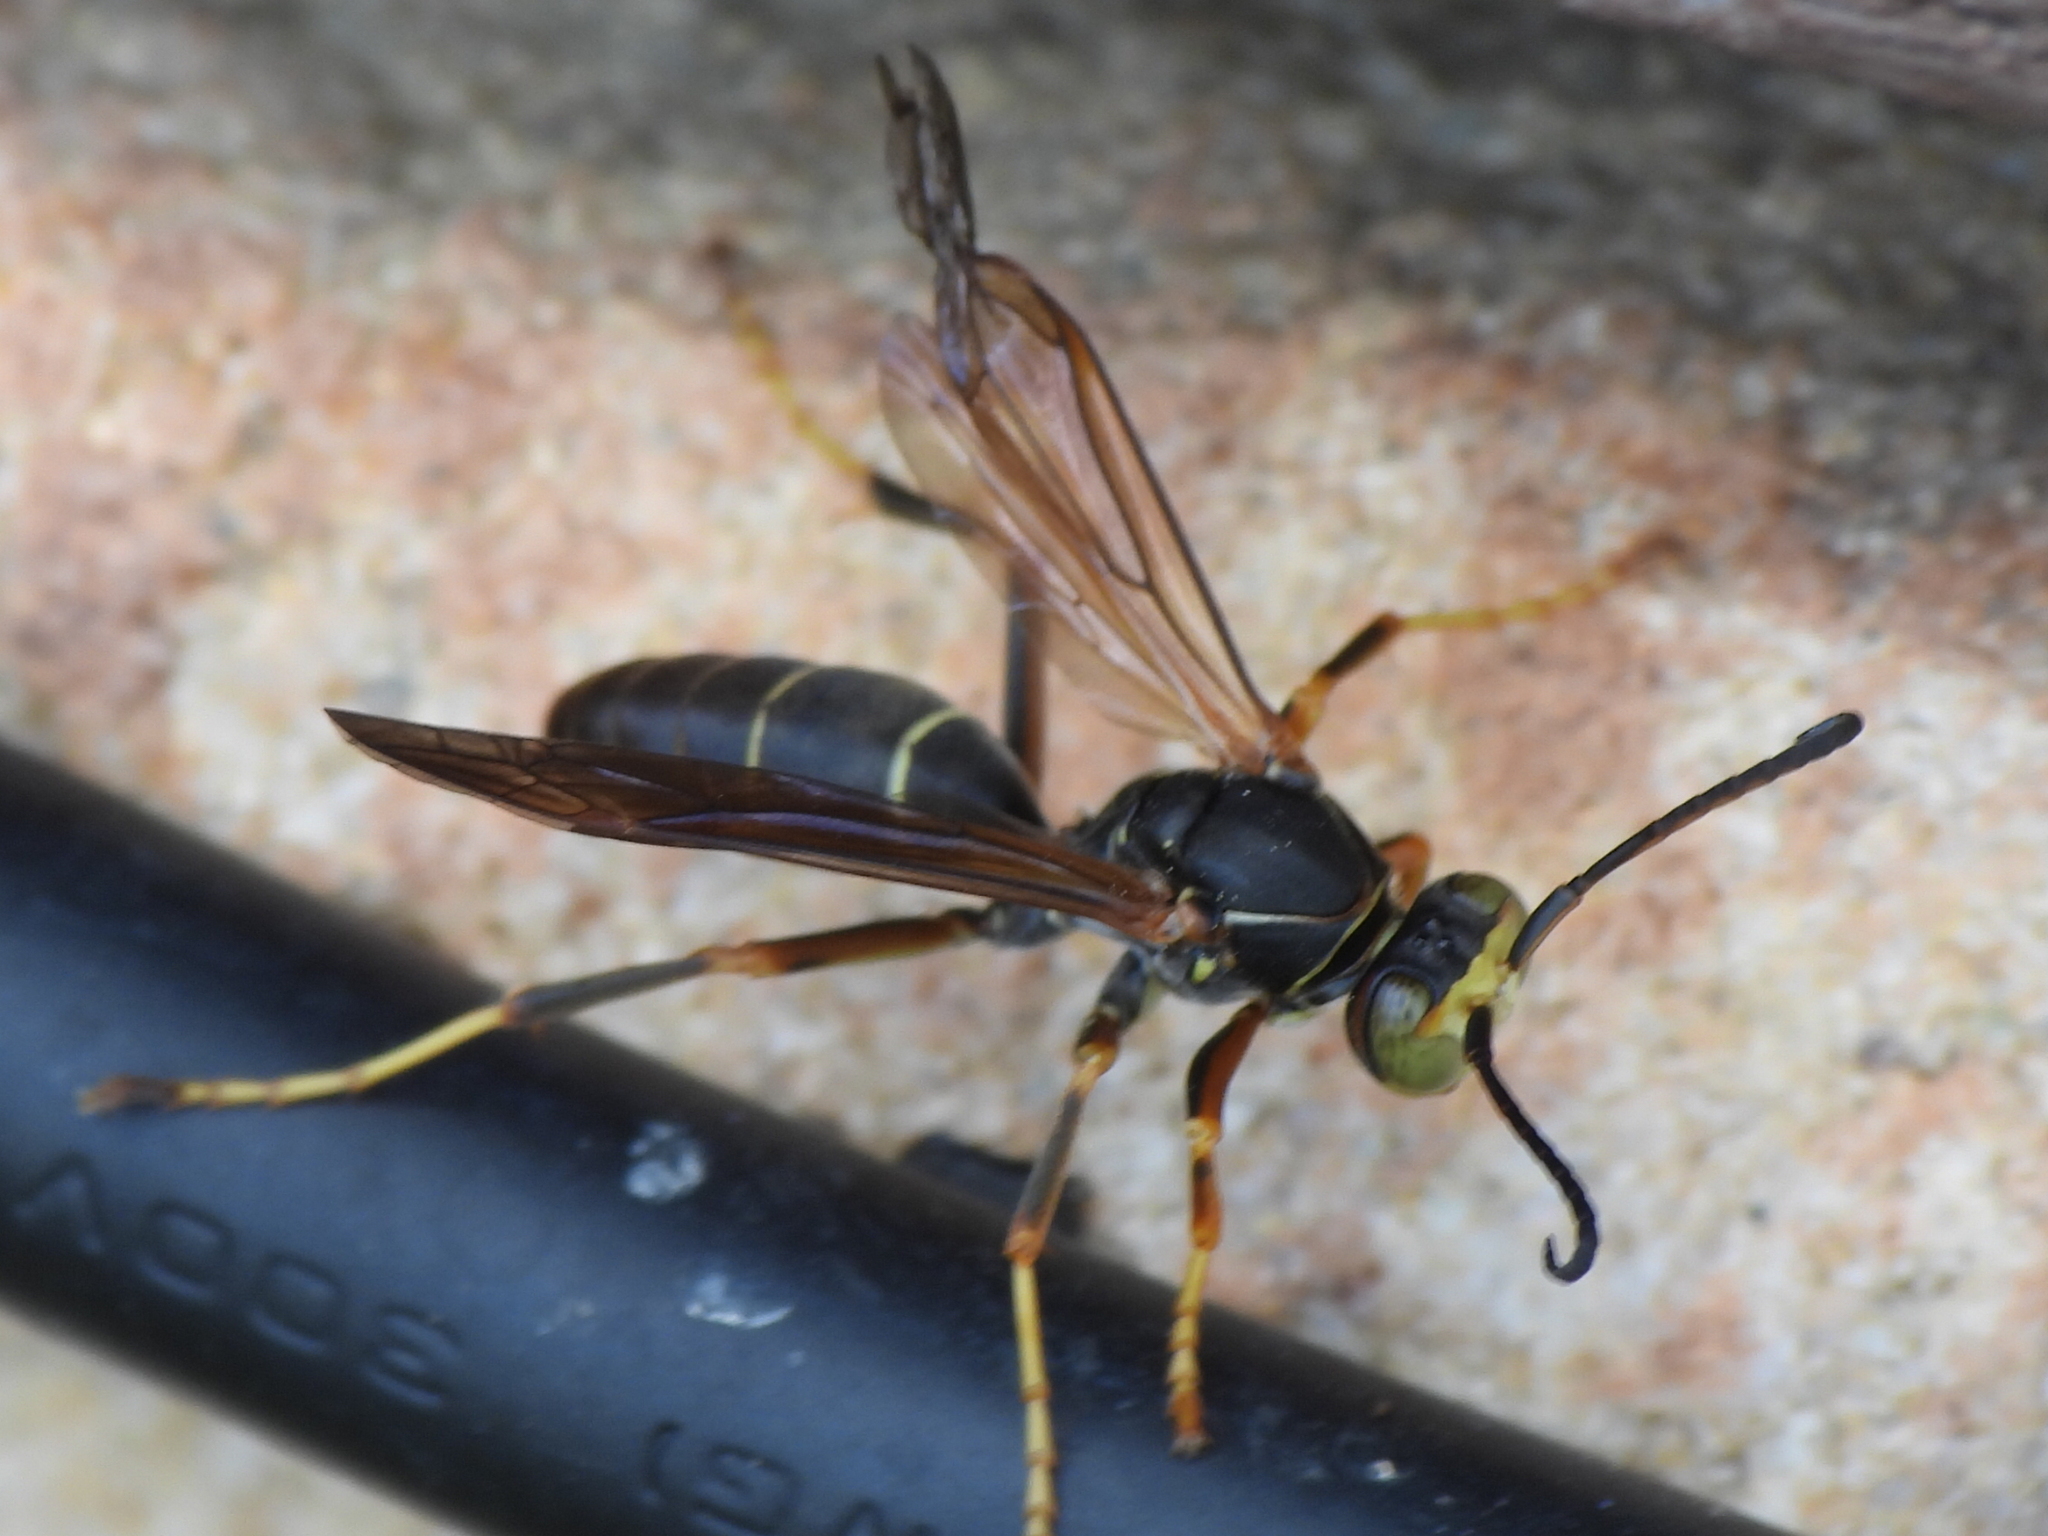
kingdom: Animalia
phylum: Arthropoda
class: Insecta
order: Hymenoptera
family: Eumenidae
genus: Polistes
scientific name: Polistes fuscatus
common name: Dark paper wasp
